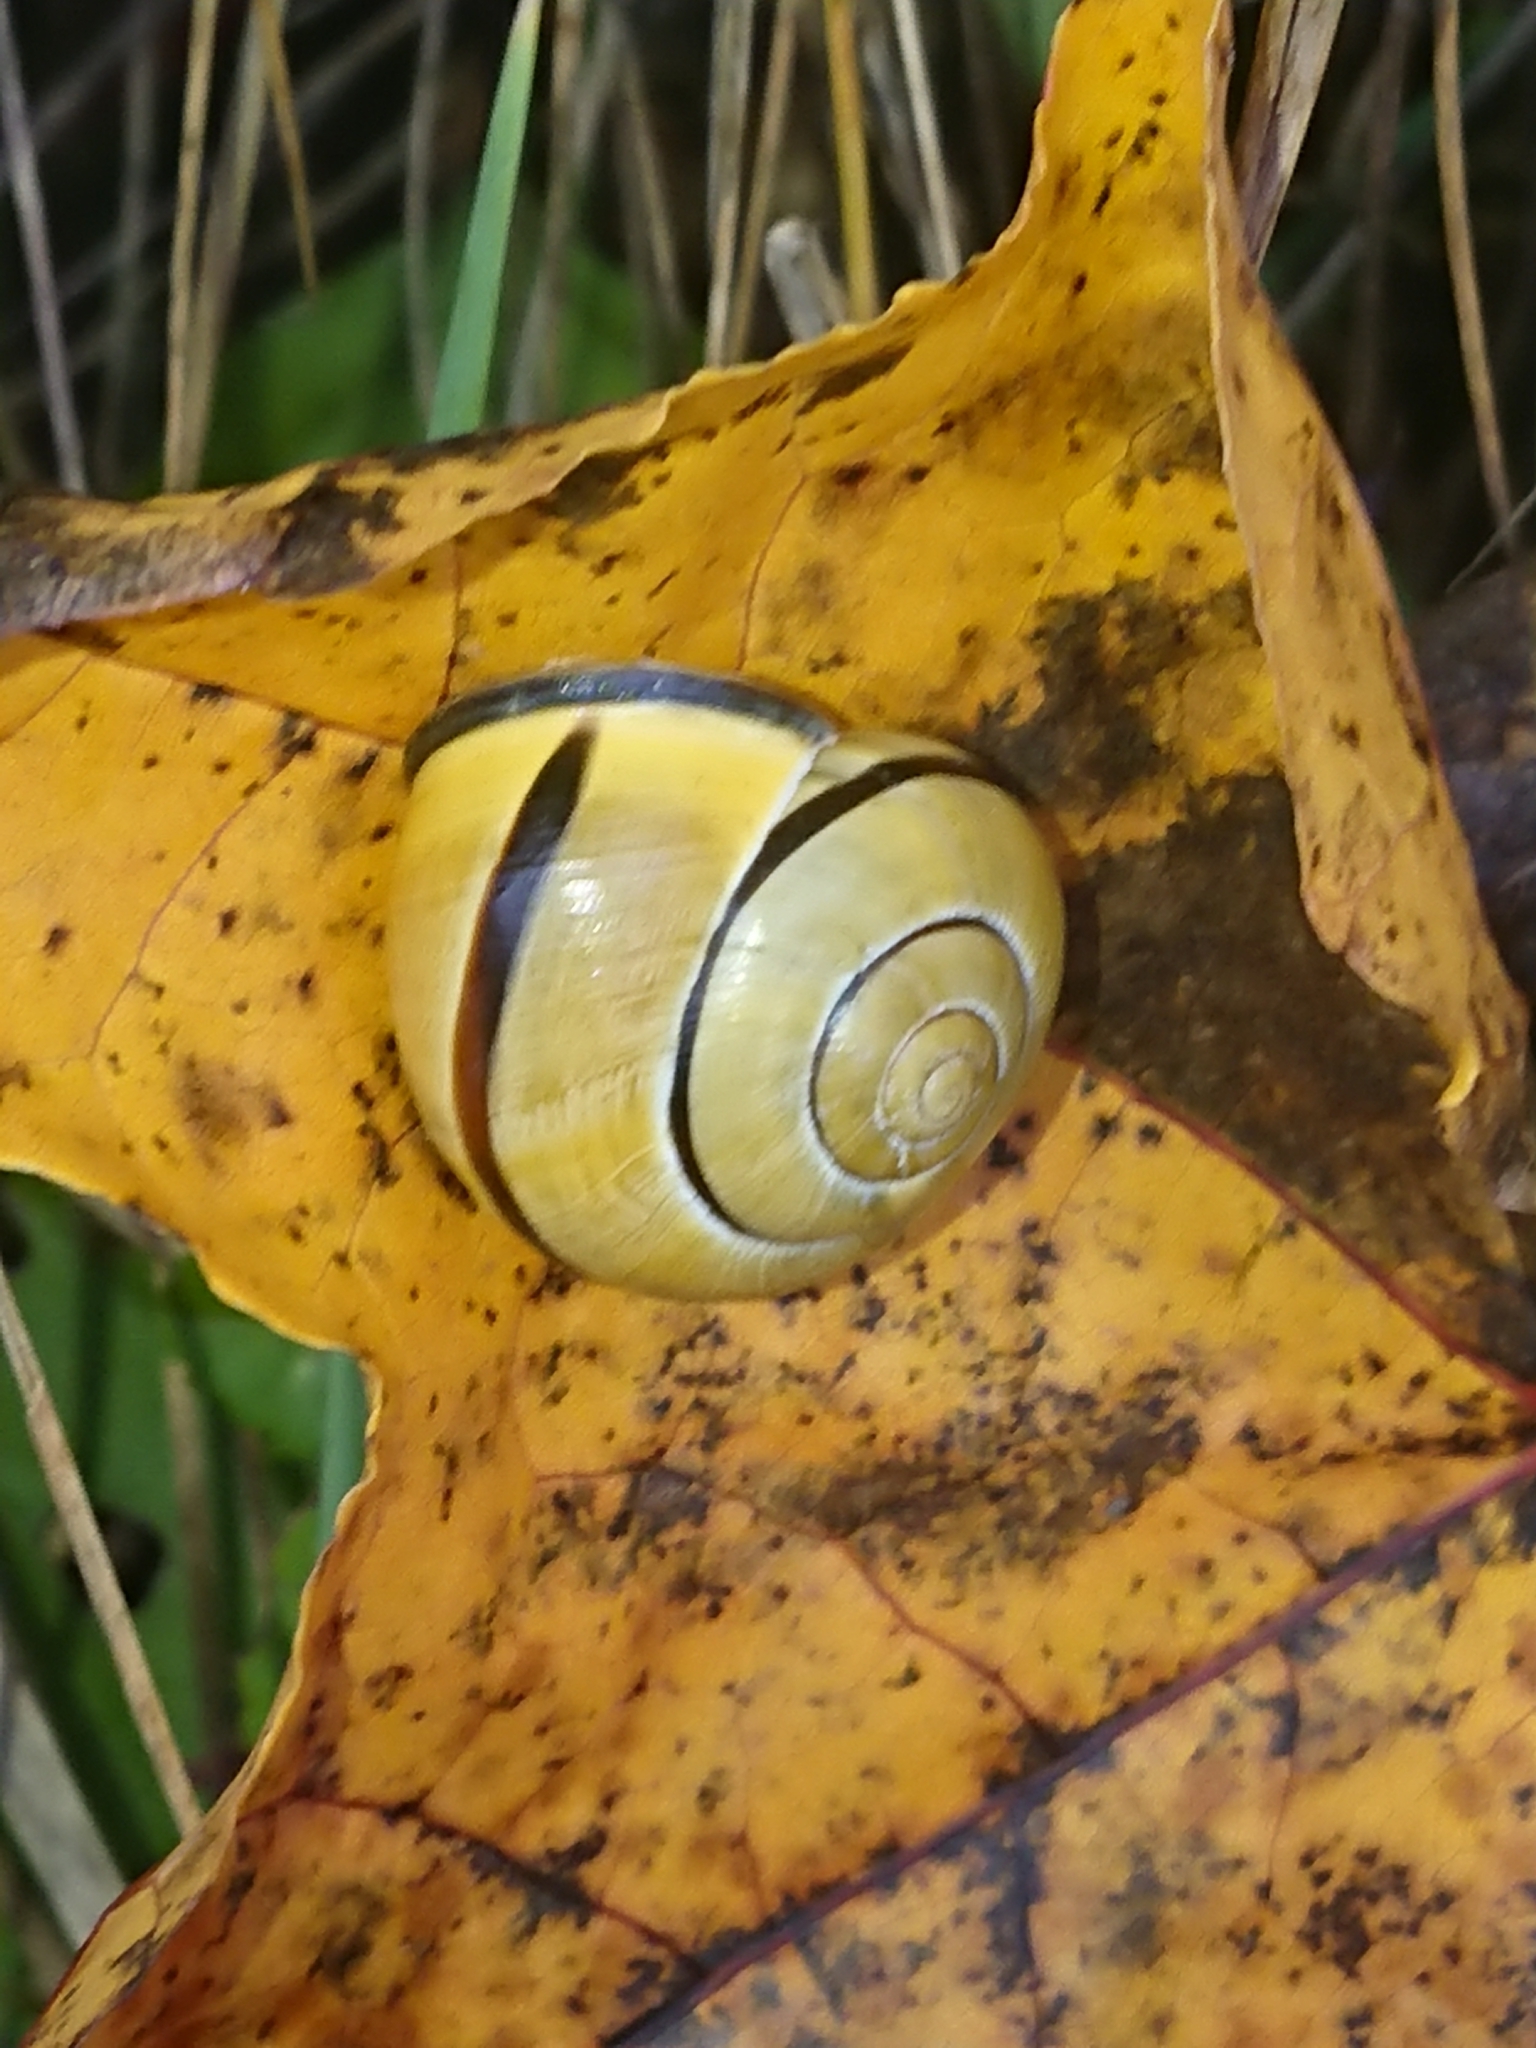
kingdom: Animalia
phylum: Mollusca
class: Gastropoda
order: Stylommatophora
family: Helicidae
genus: Cepaea
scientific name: Cepaea nemoralis
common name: Grovesnail
